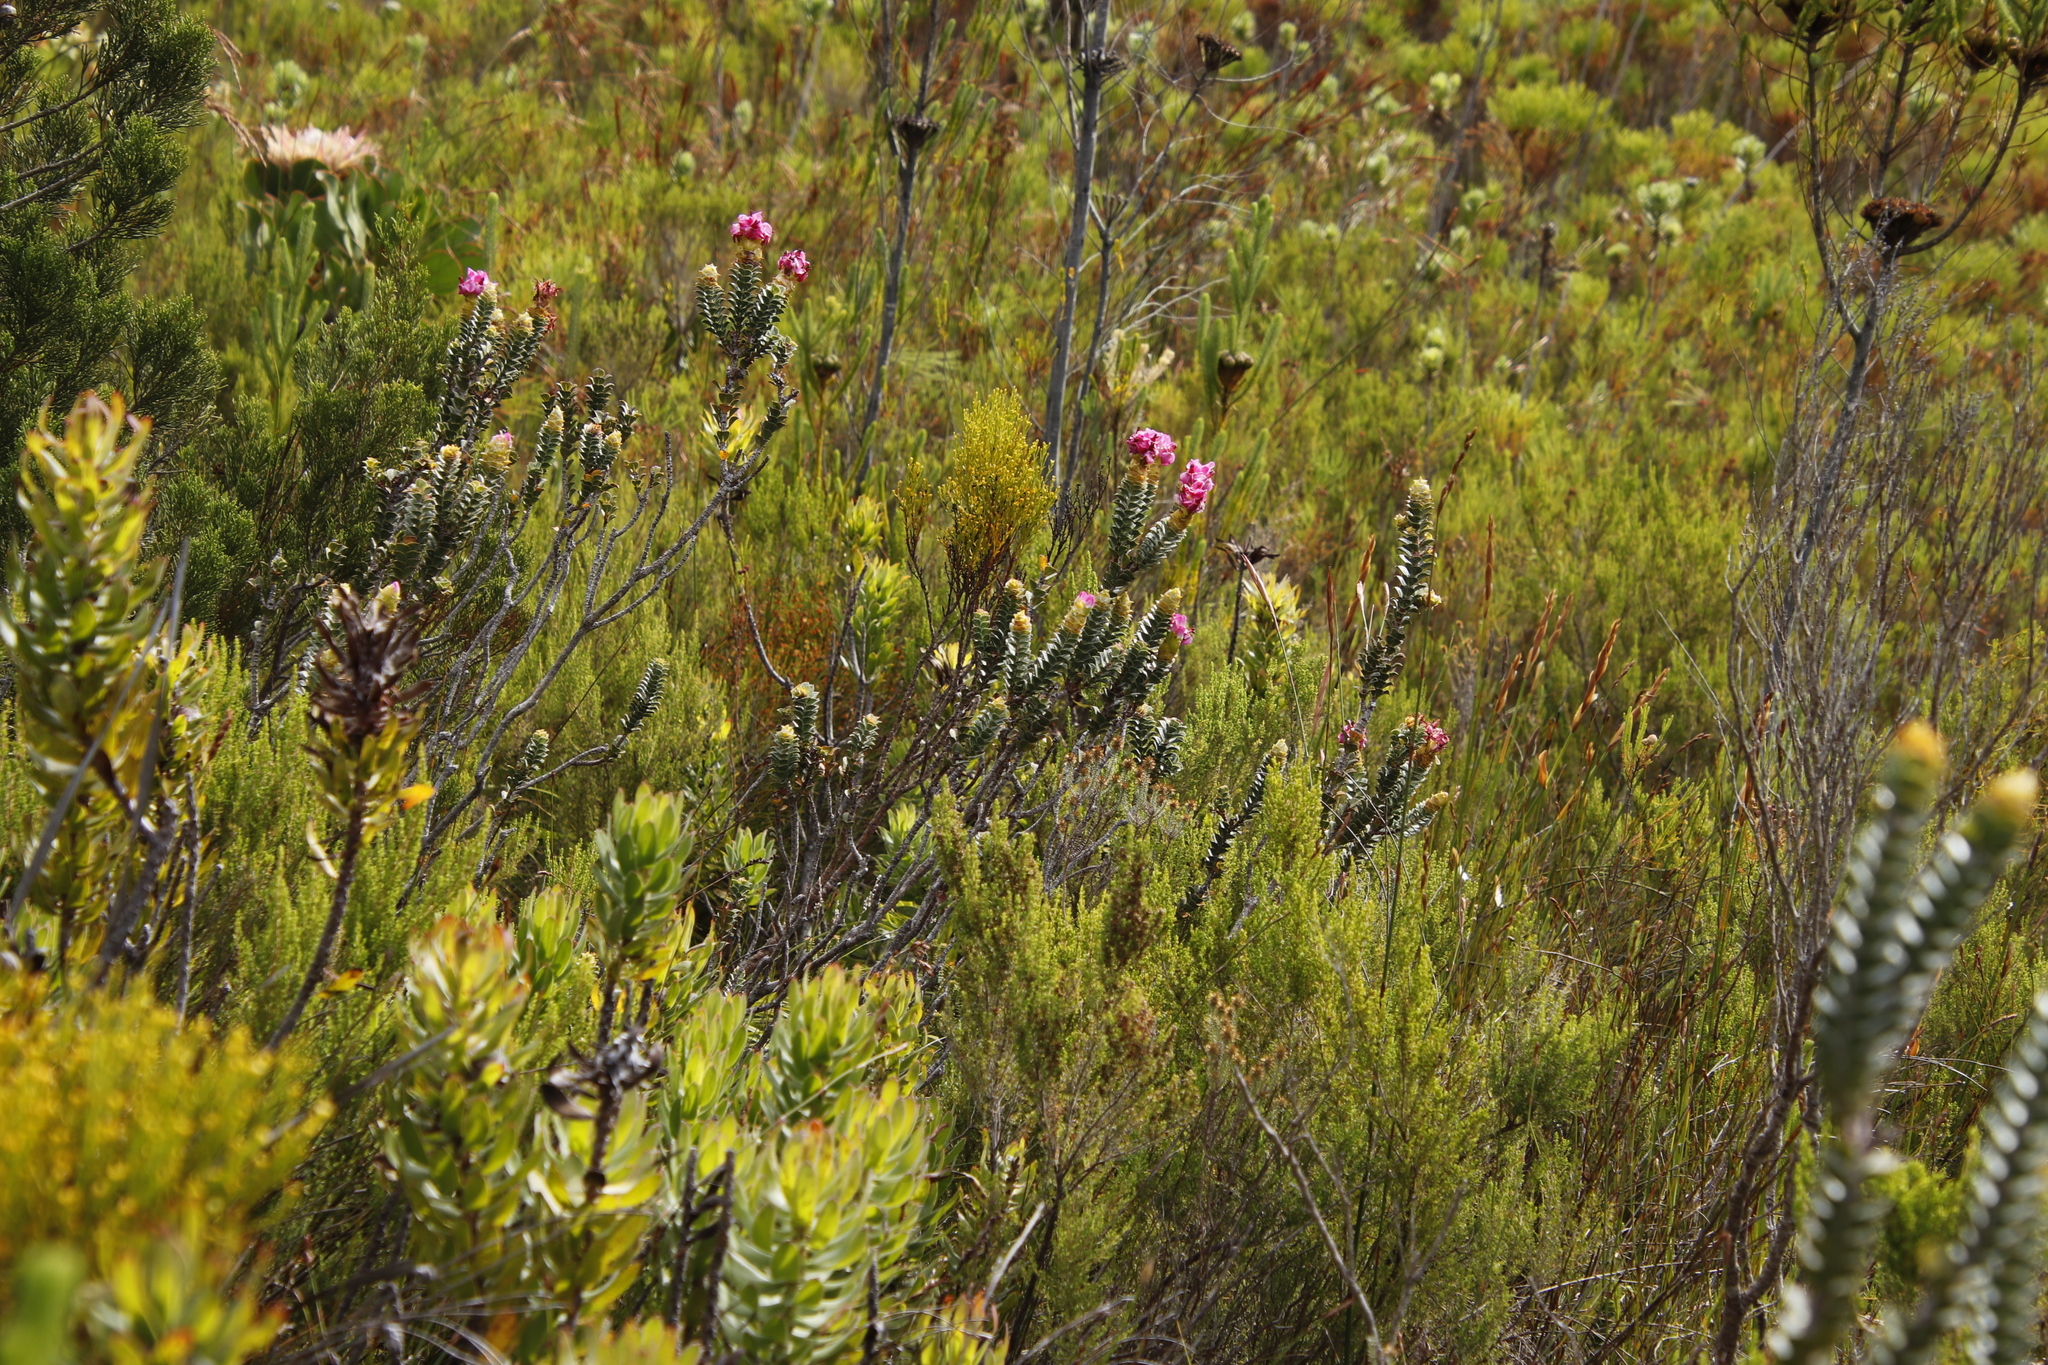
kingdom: Plantae
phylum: Tracheophyta
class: Magnoliopsida
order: Myrtales
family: Penaeaceae
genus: Saltera
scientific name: Saltera sarcocolla
